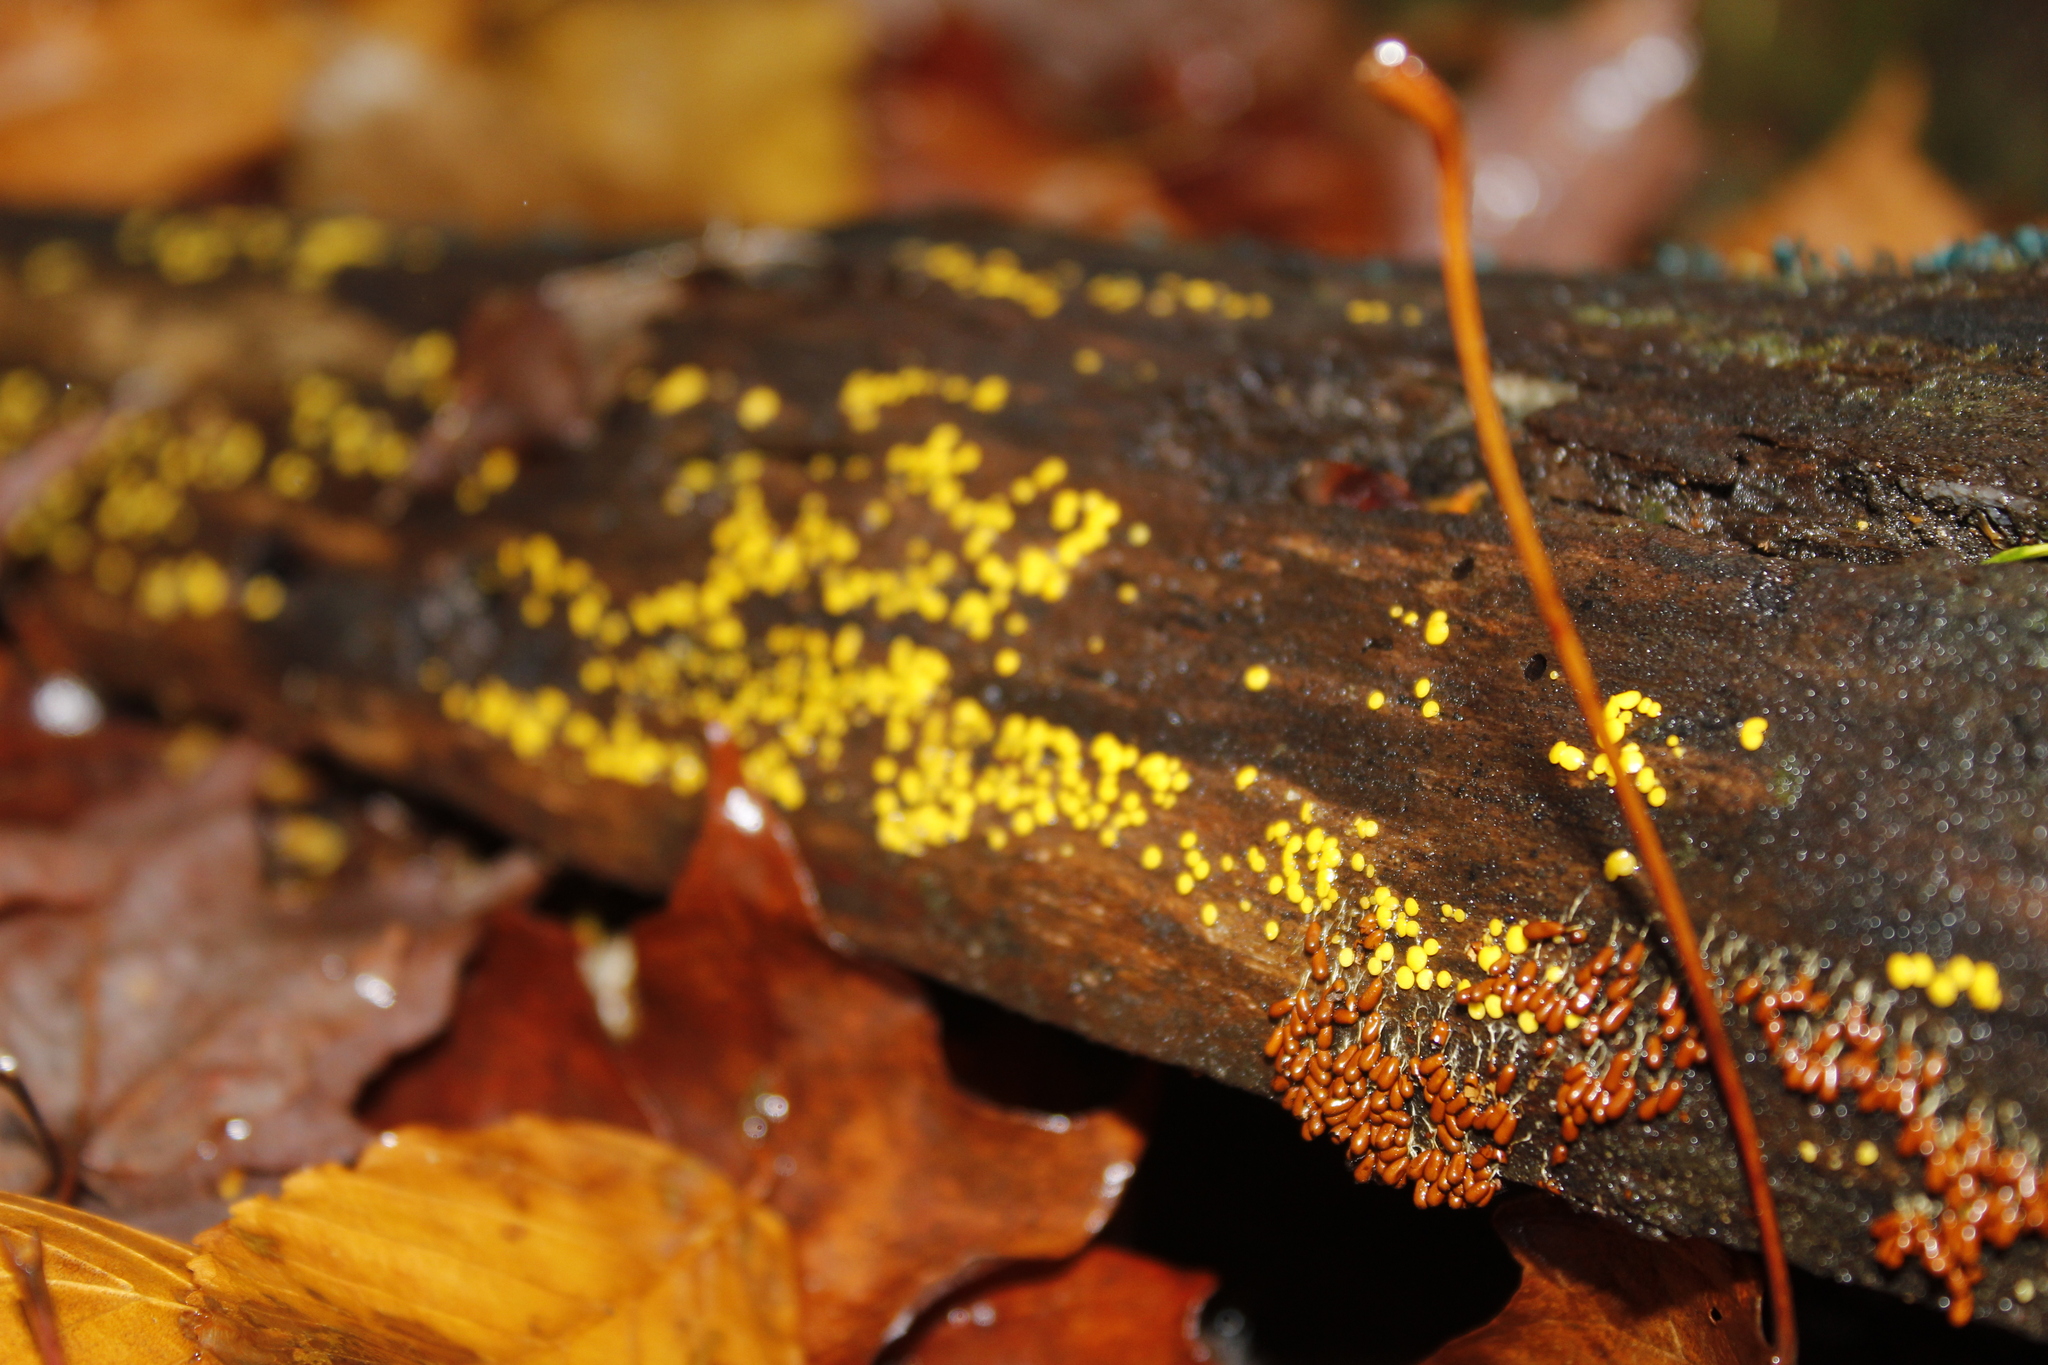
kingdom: Protozoa
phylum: Mycetozoa
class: Myxomycetes
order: Physarales
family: Physaraceae
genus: Leocarpus
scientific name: Leocarpus fragilis
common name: Insect-egg slime
